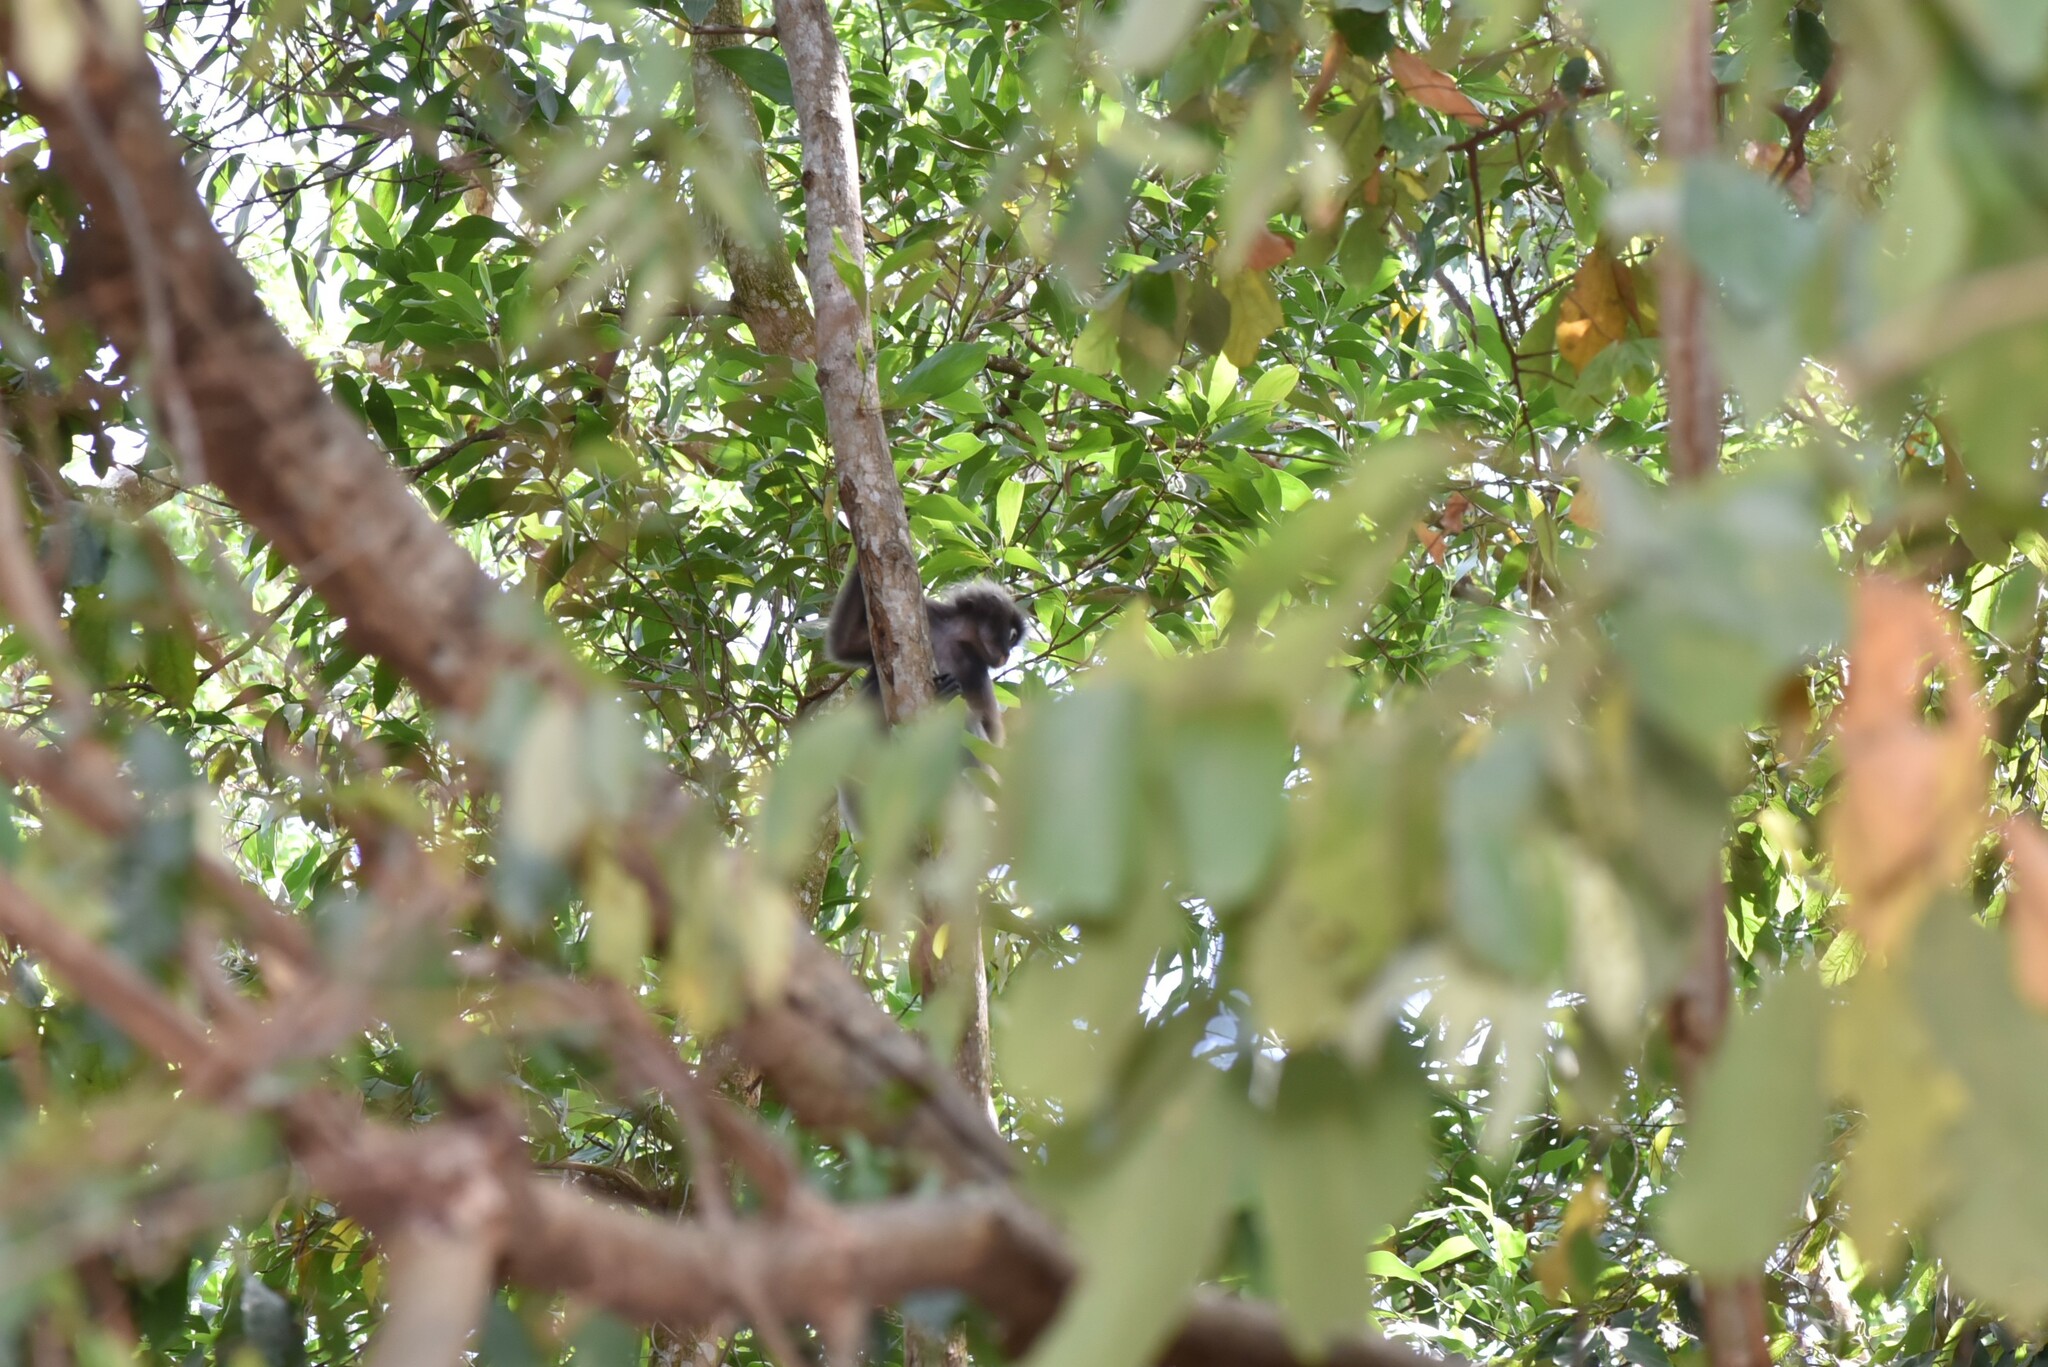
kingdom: Animalia
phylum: Chordata
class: Mammalia
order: Primates
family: Cercopithecidae
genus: Trachypithecus
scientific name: Trachypithecus obscurus
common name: Dusky leaf-monkey
